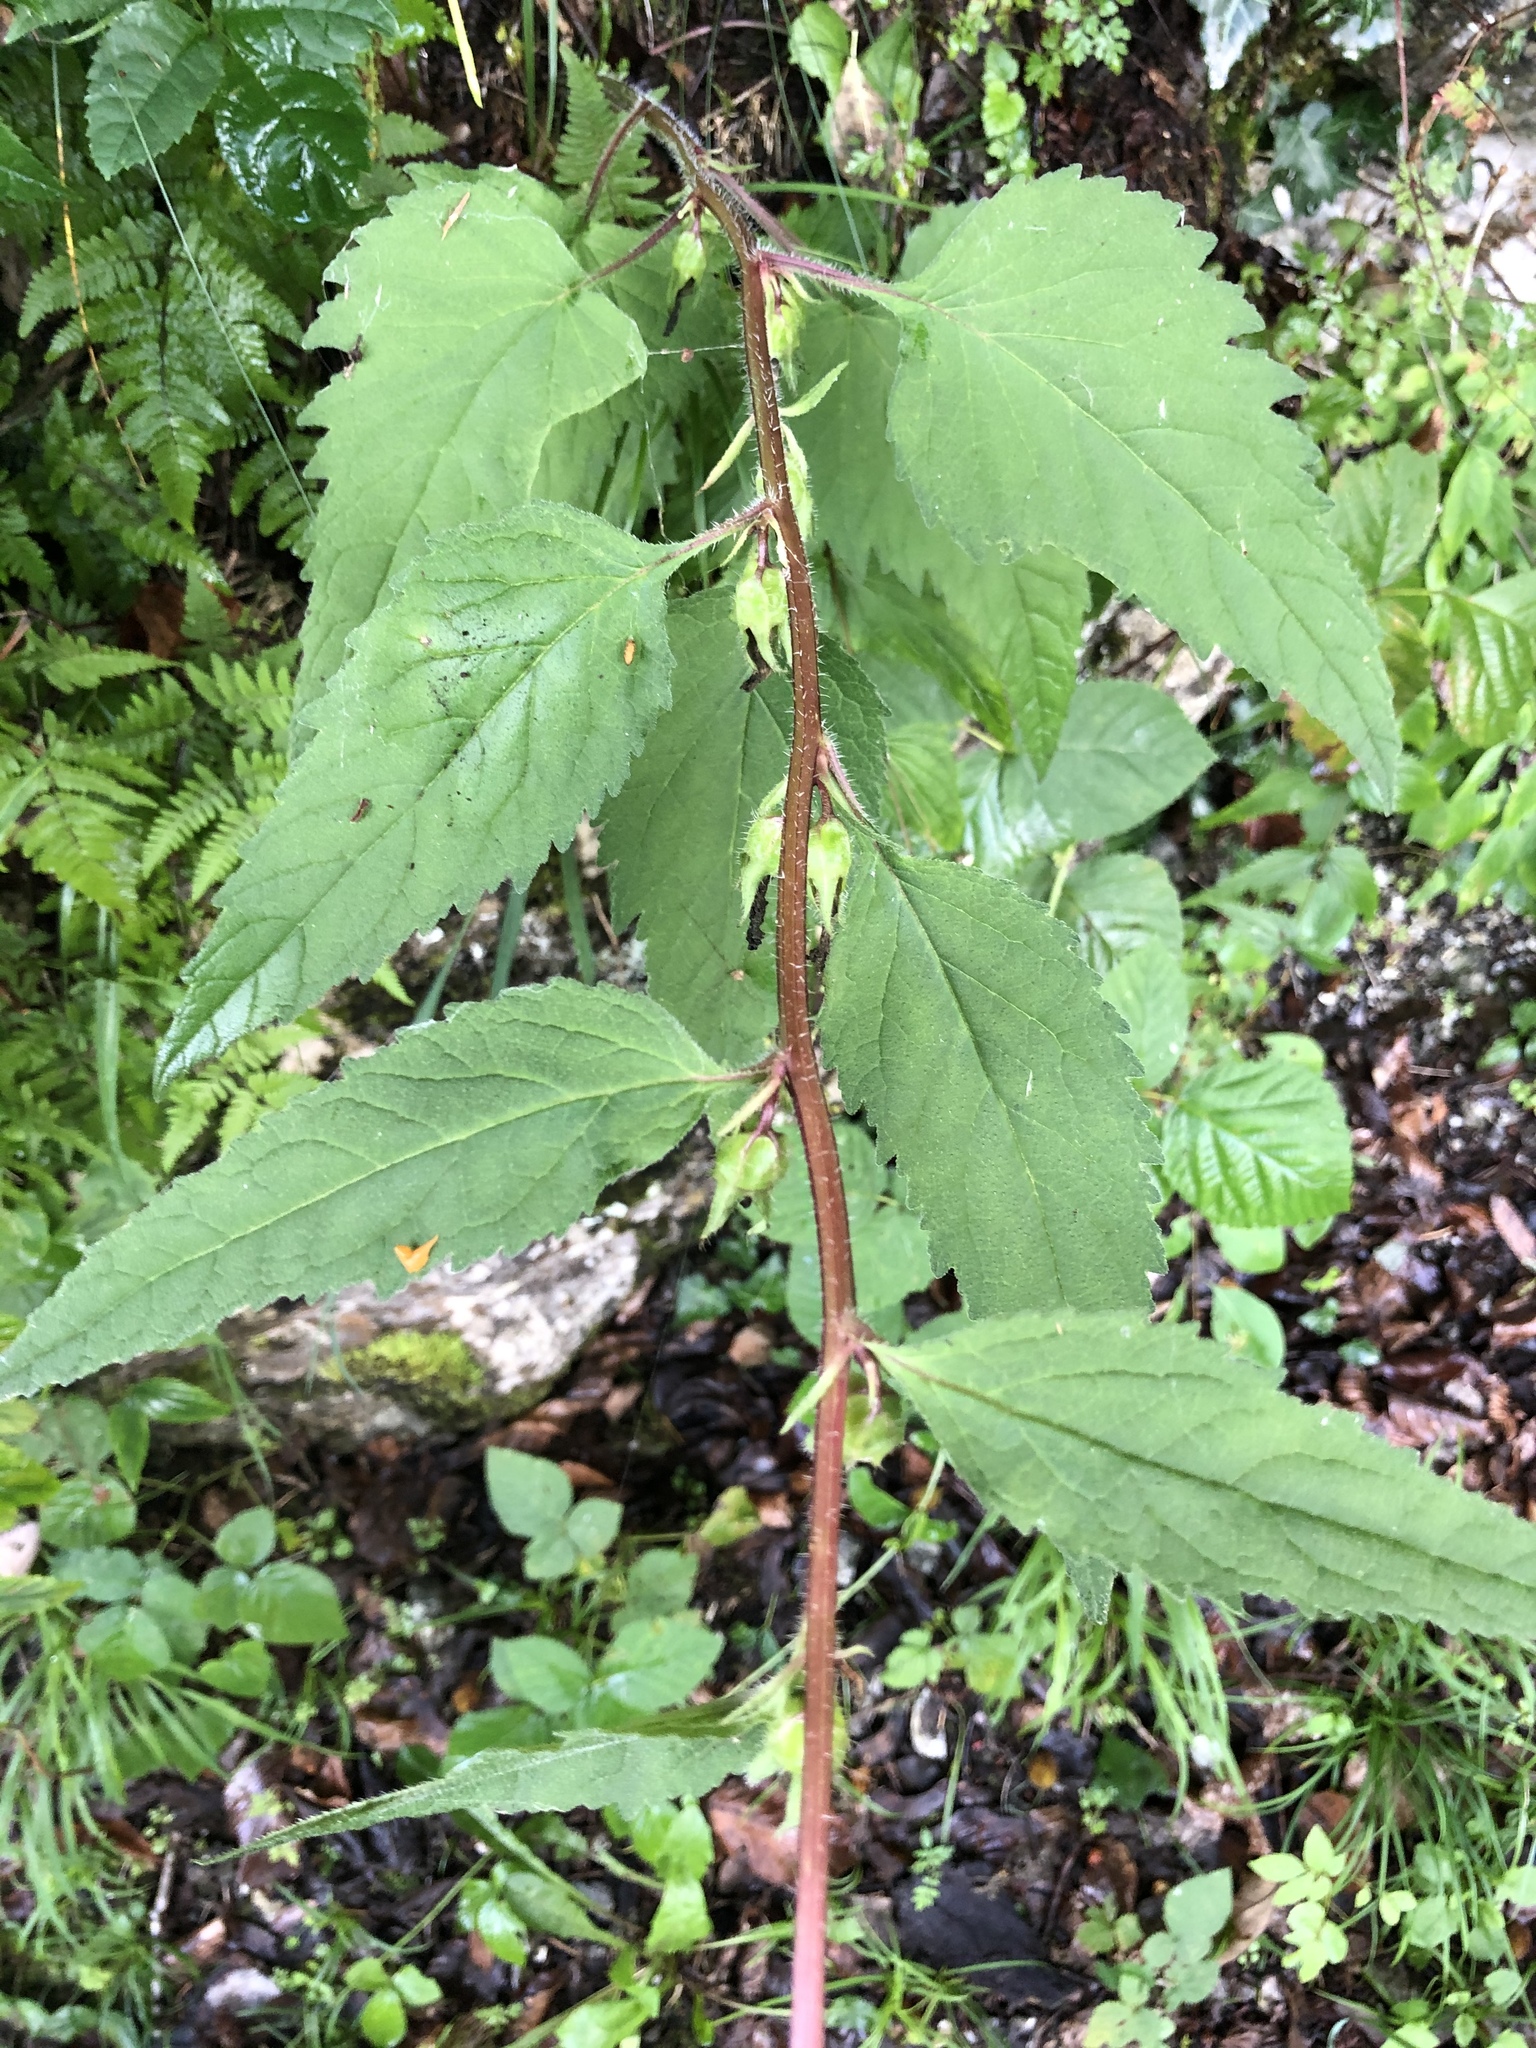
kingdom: Plantae
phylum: Tracheophyta
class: Magnoliopsida
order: Asterales
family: Campanulaceae
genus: Campanula
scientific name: Campanula trachelium
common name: Nettle-leaved bellflower
